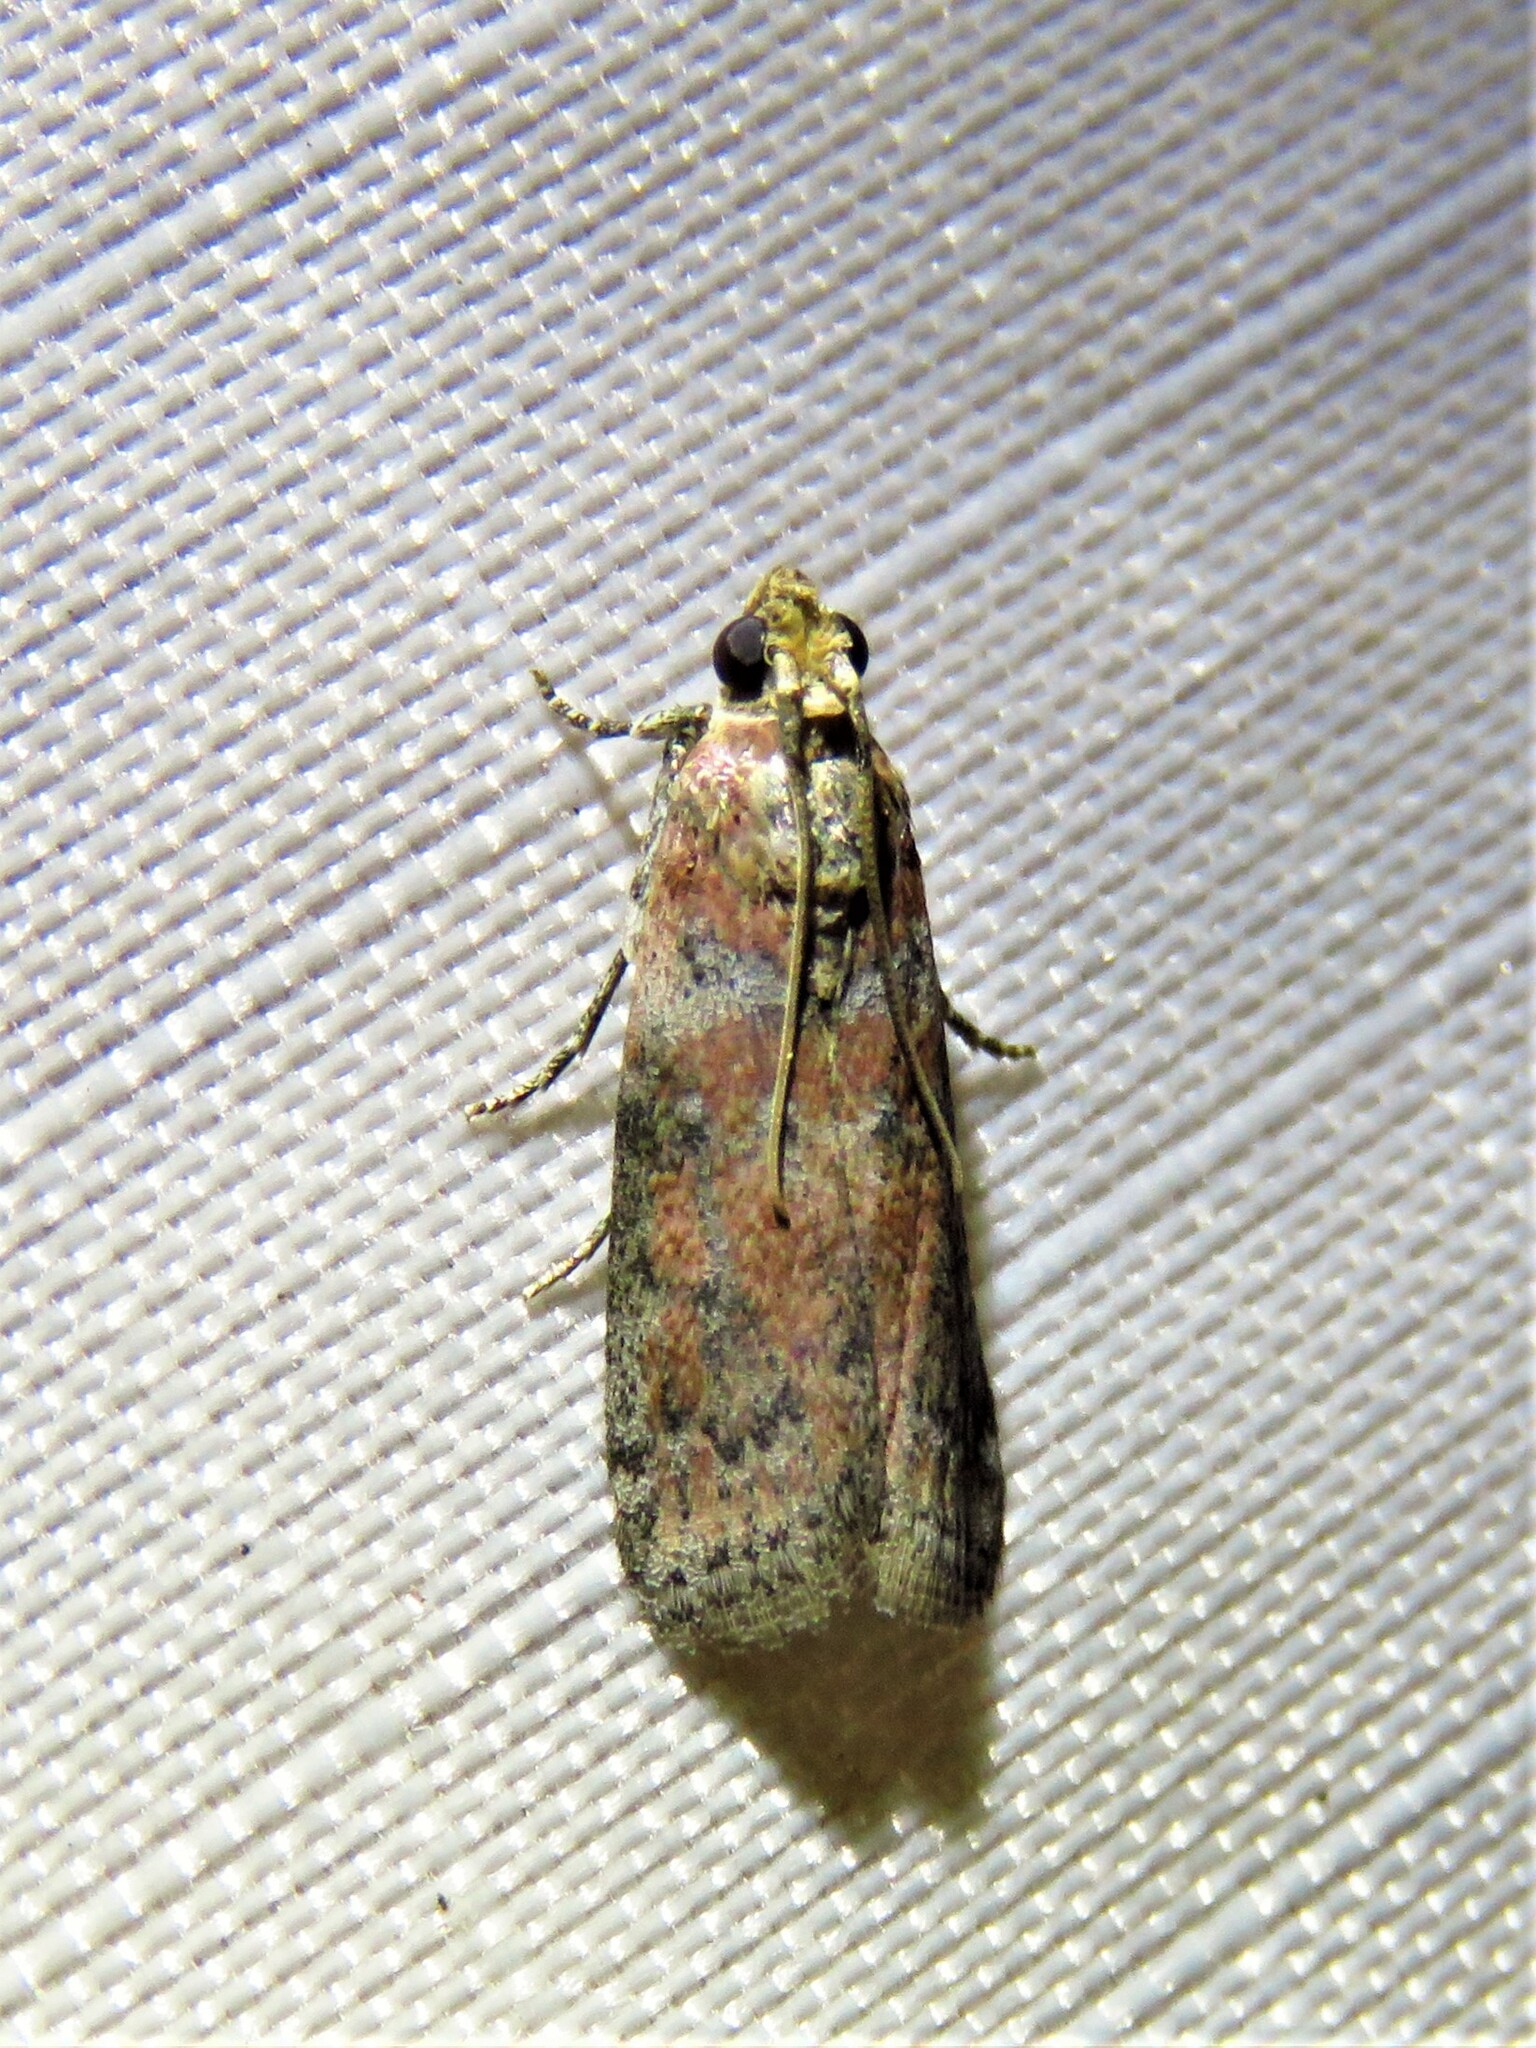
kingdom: Animalia
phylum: Arthropoda
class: Insecta
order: Lepidoptera
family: Pyralidae
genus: Sciota
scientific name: Sciota
